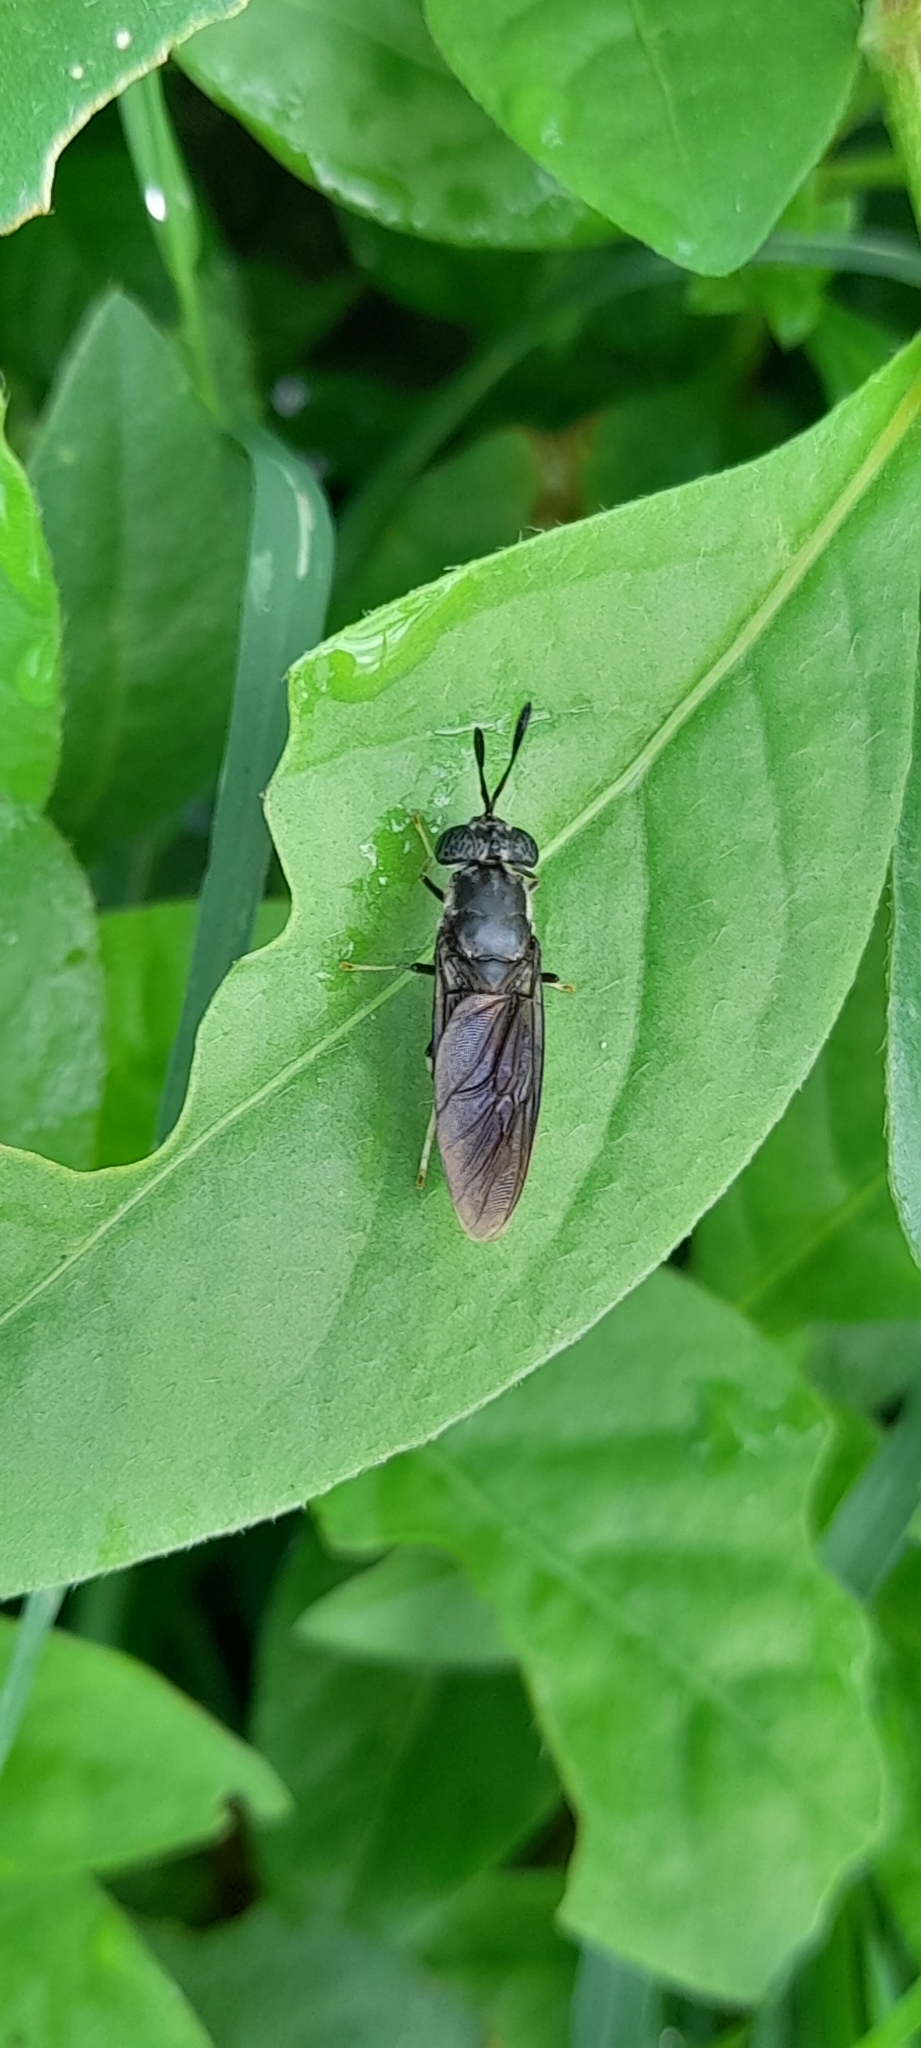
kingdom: Animalia
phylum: Arthropoda
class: Insecta
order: Diptera
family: Stratiomyidae
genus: Hermetia
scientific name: Hermetia illucens
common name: Black soldier fly
